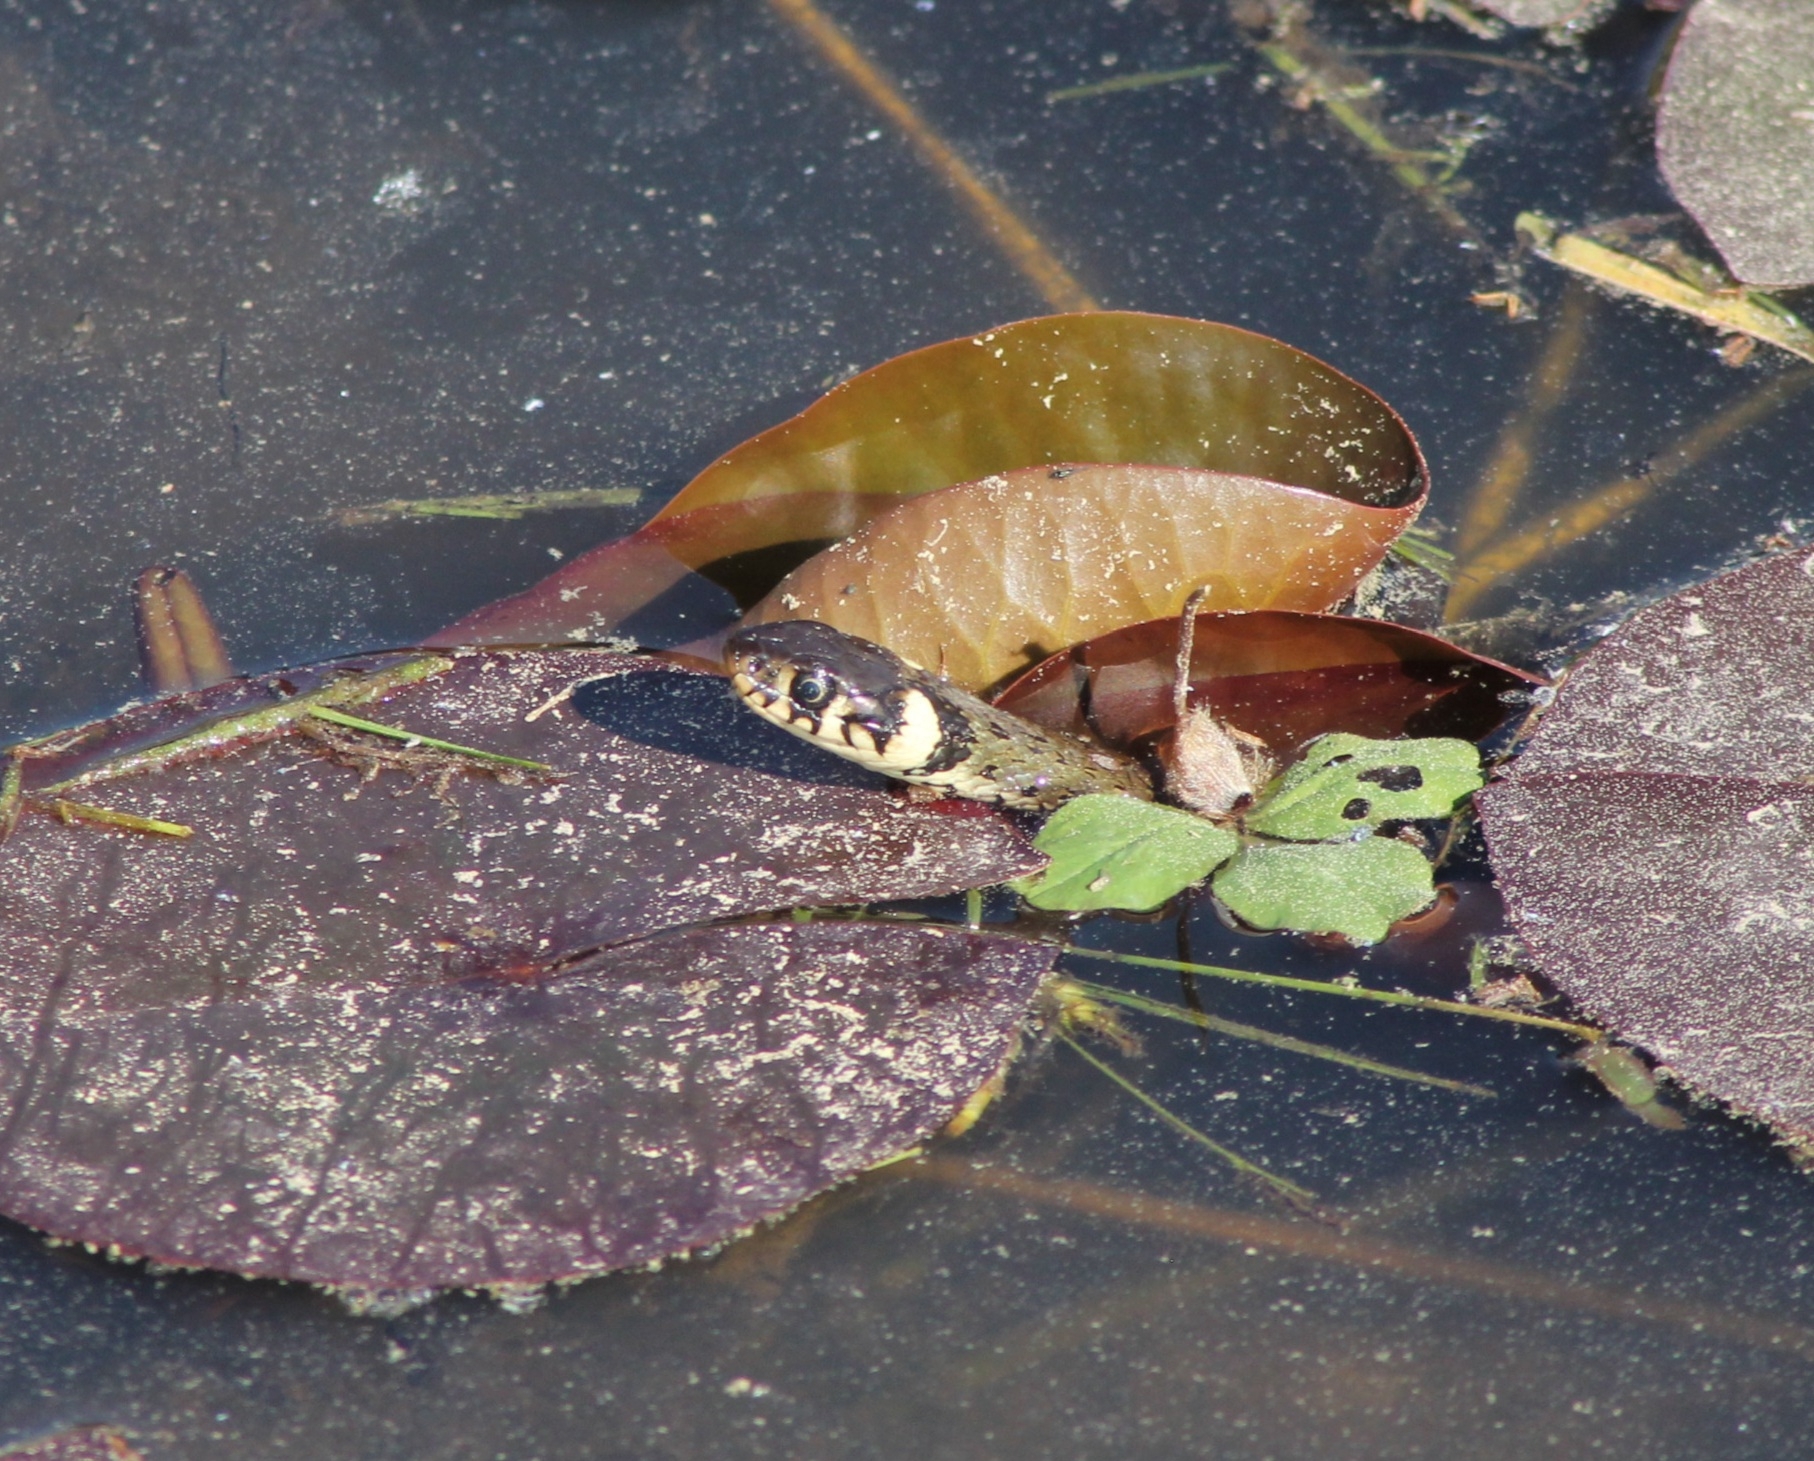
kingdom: Animalia
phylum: Chordata
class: Squamata
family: Colubridae
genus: Natrix
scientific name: Natrix natrix
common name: Grass snake
